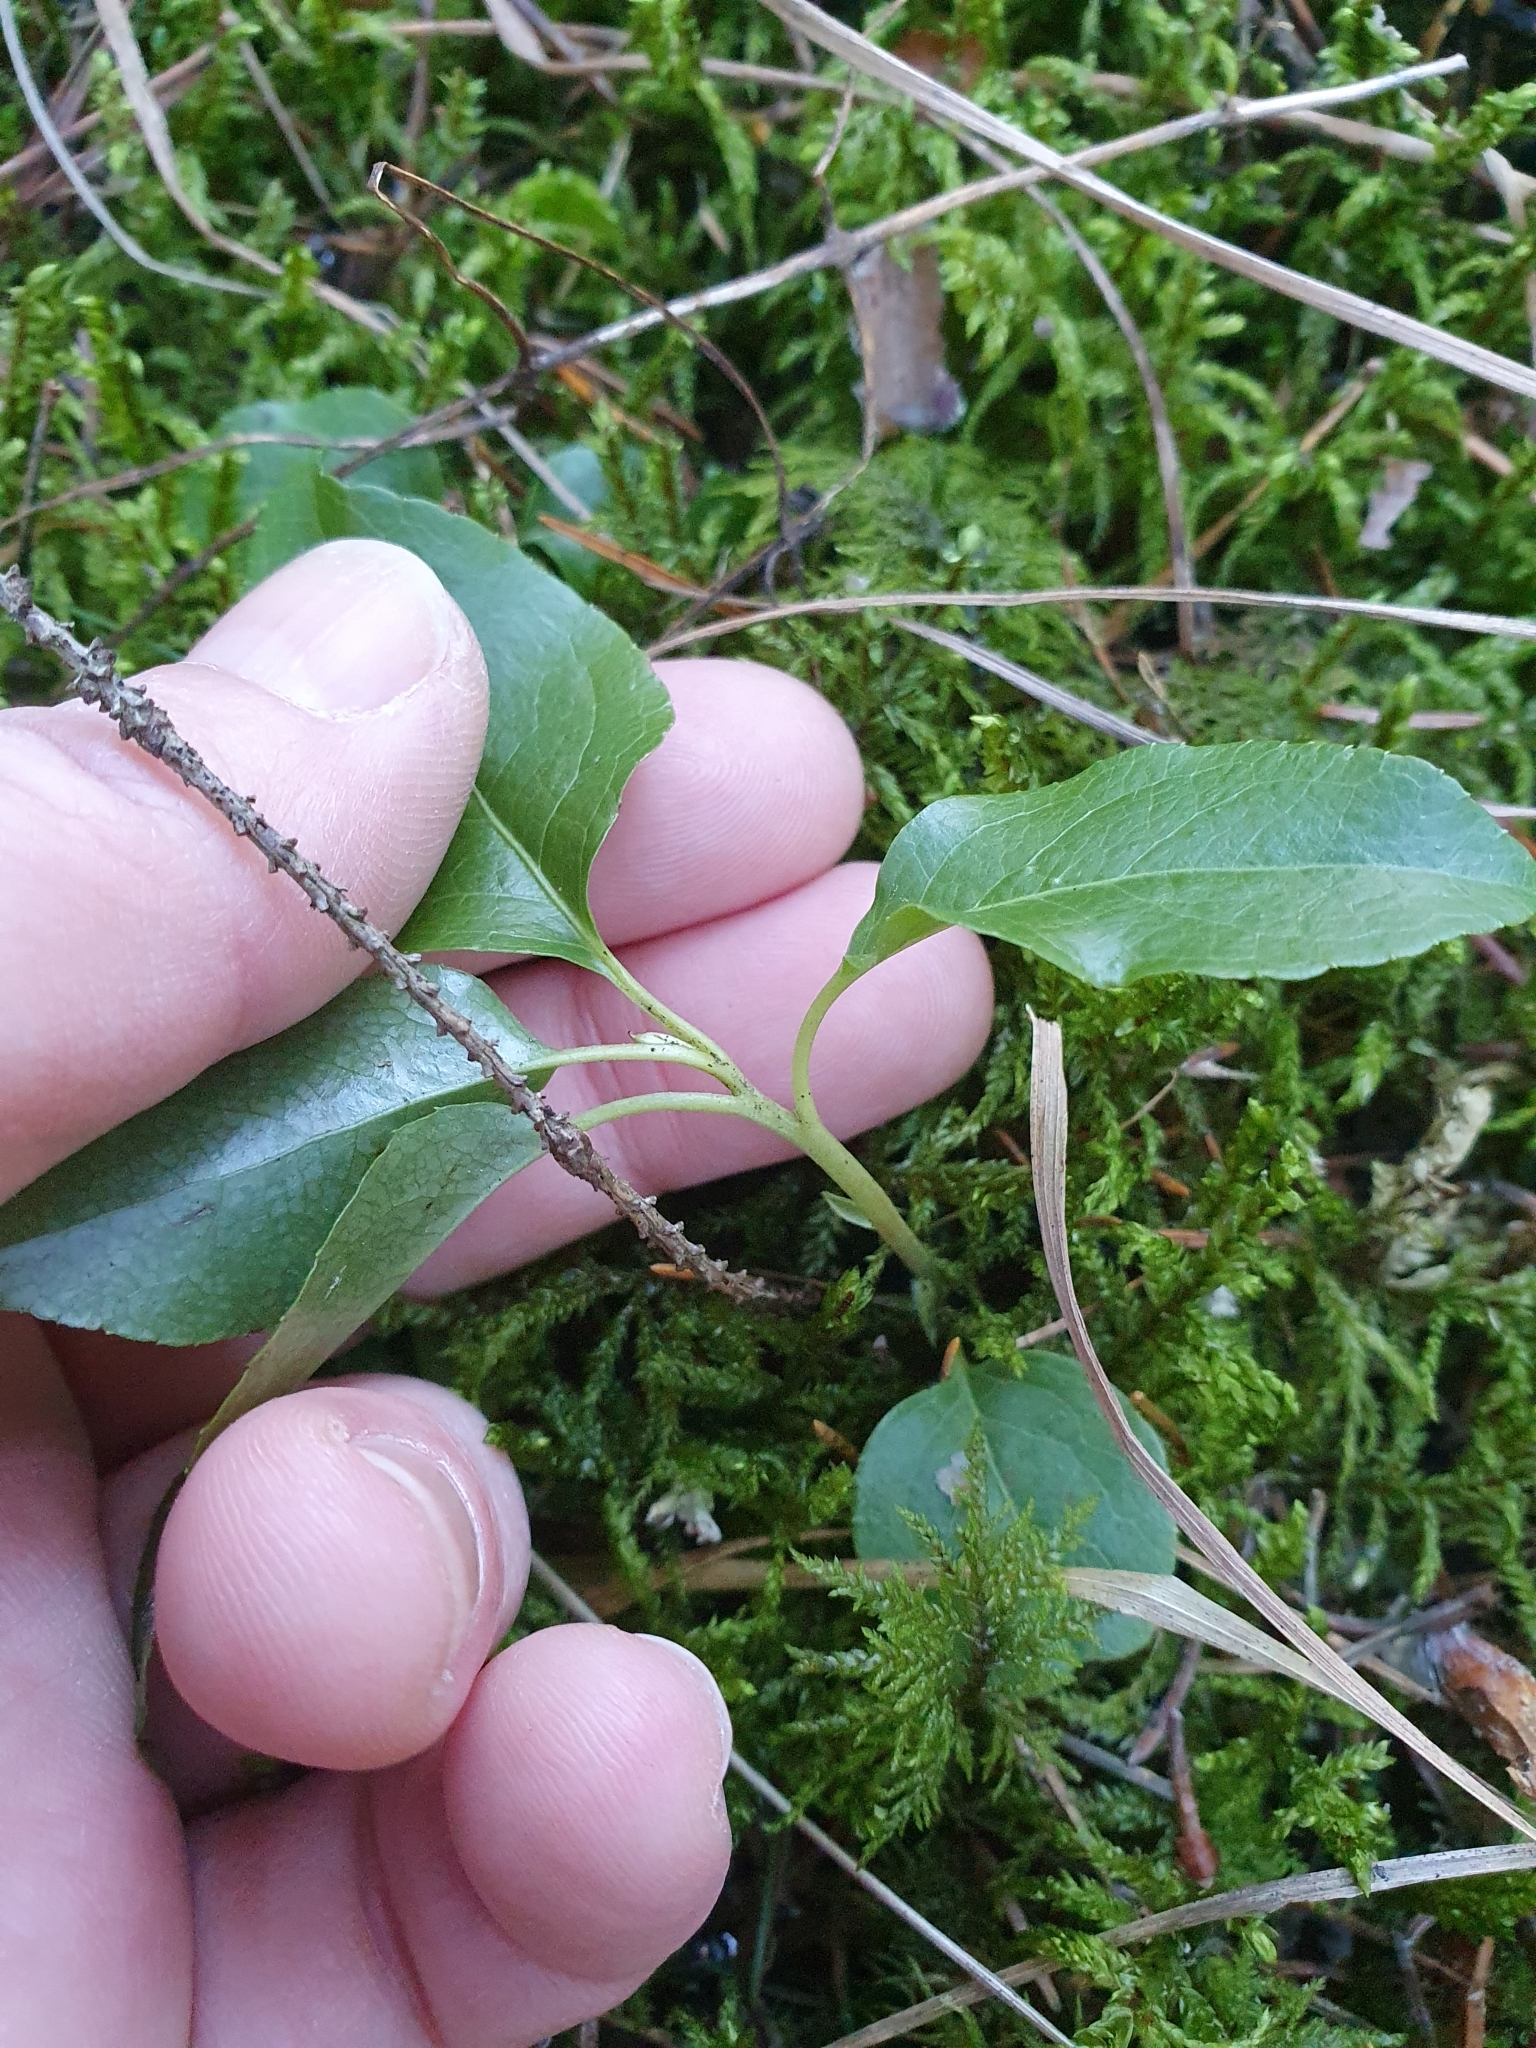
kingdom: Plantae
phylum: Tracheophyta
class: Magnoliopsida
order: Ericales
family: Ericaceae
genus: Orthilia
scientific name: Orthilia secunda
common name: One-sided orthilia
